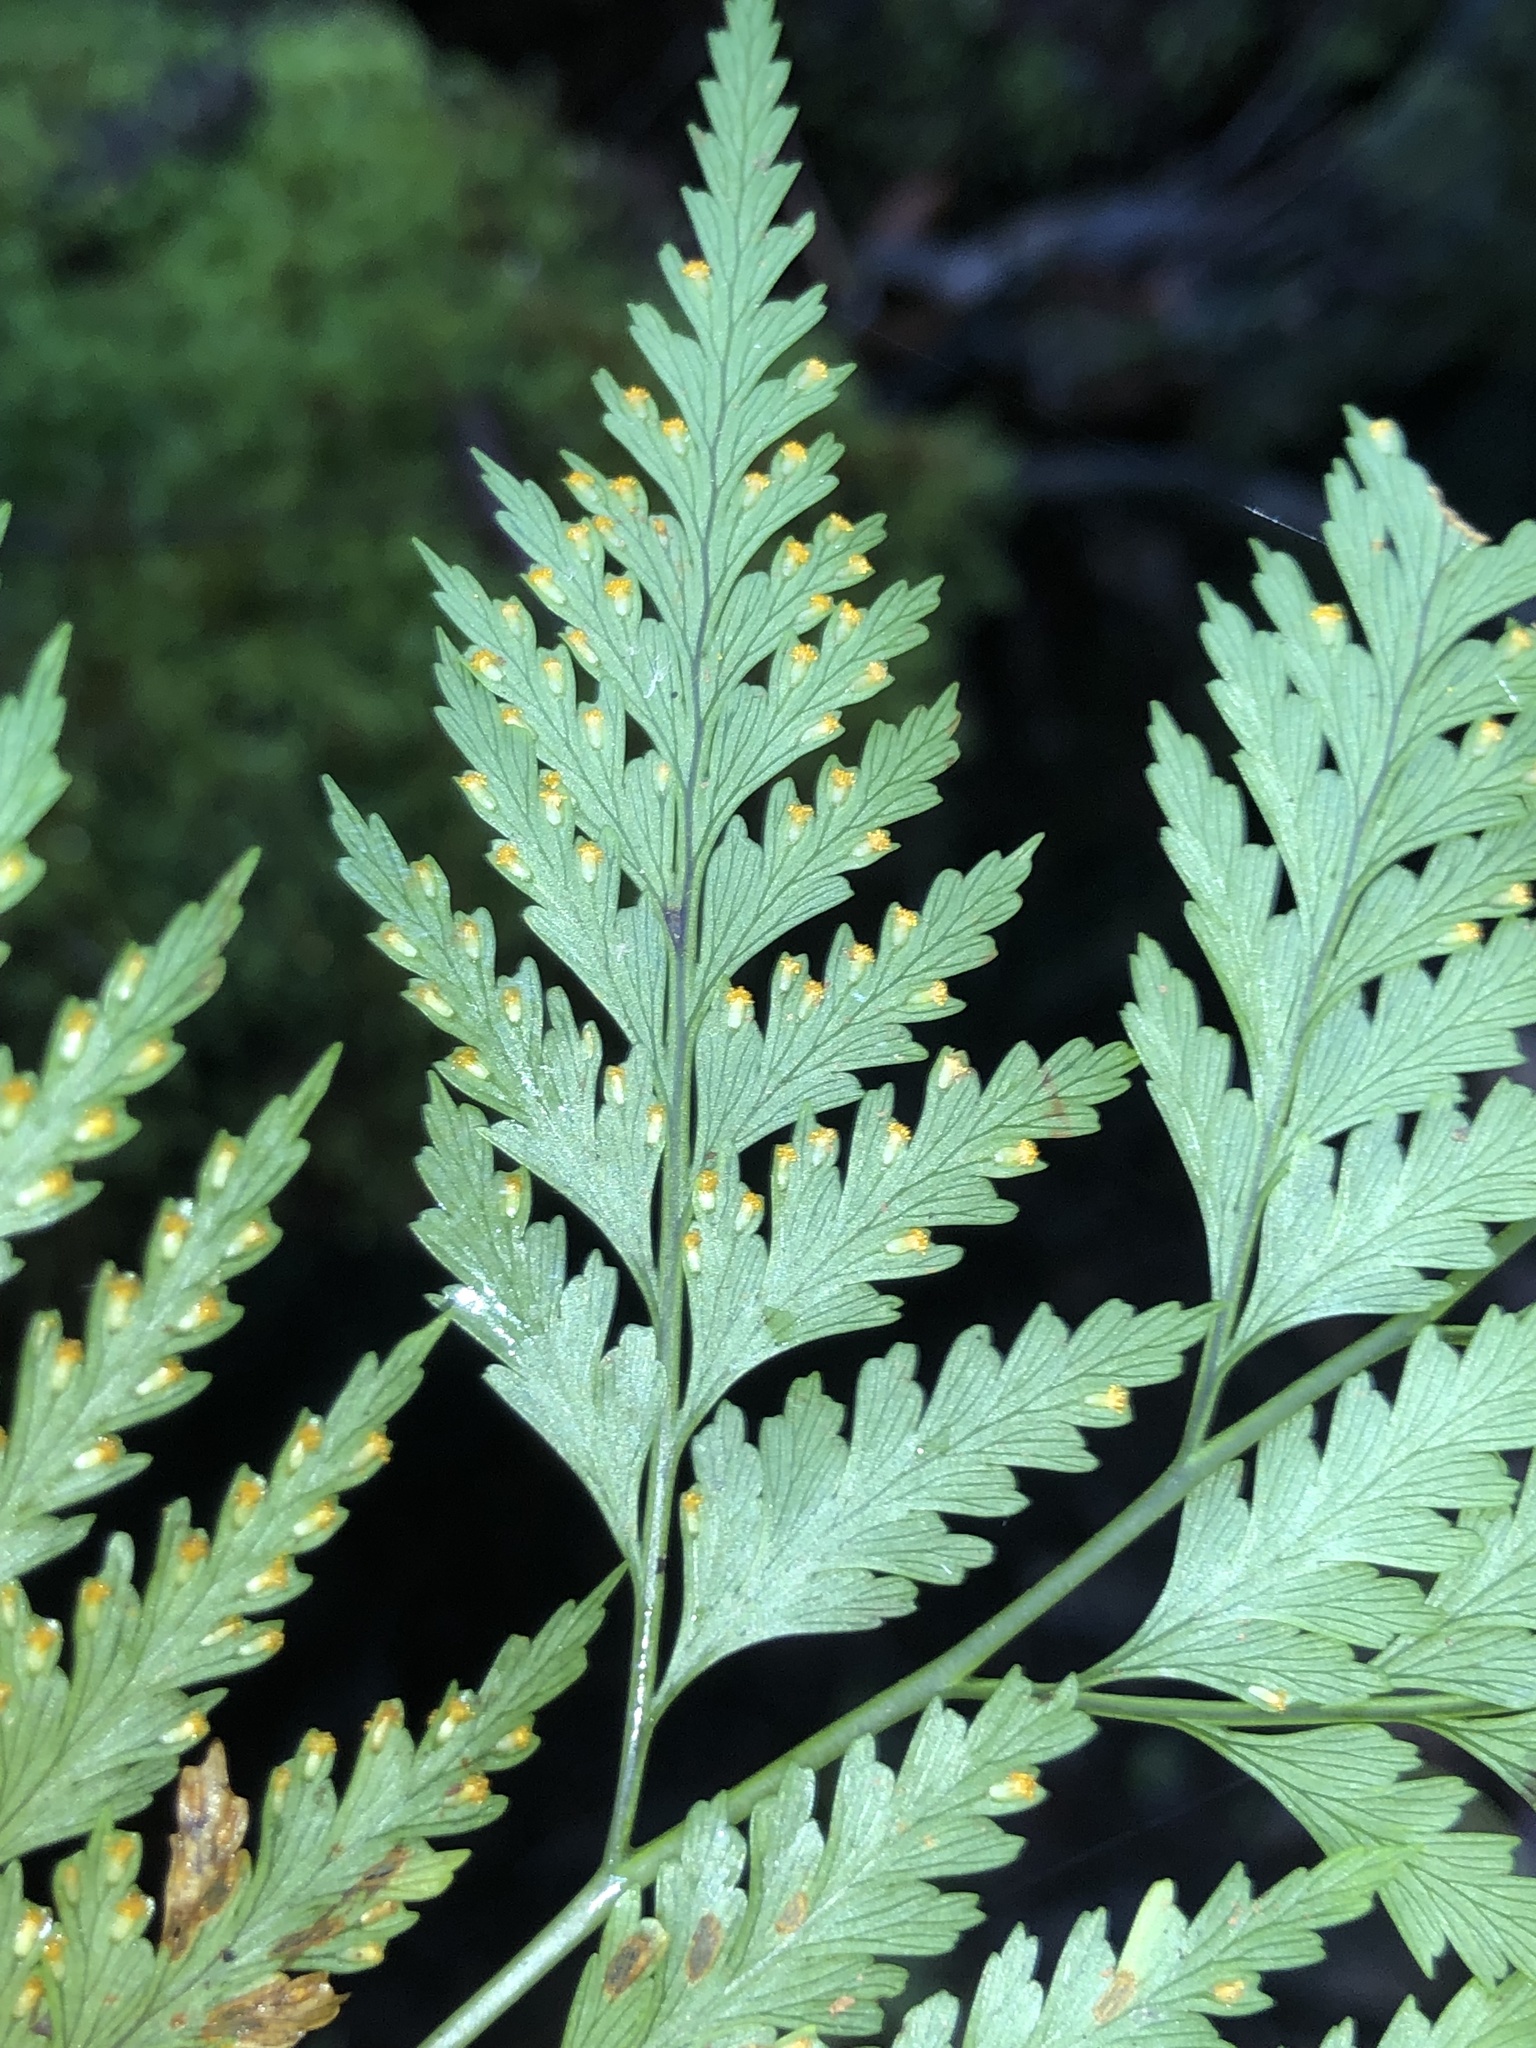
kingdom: Plantae
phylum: Tracheophyta
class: Polypodiopsida
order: Polypodiales
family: Davalliaceae
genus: Davallia
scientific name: Davallia solida
